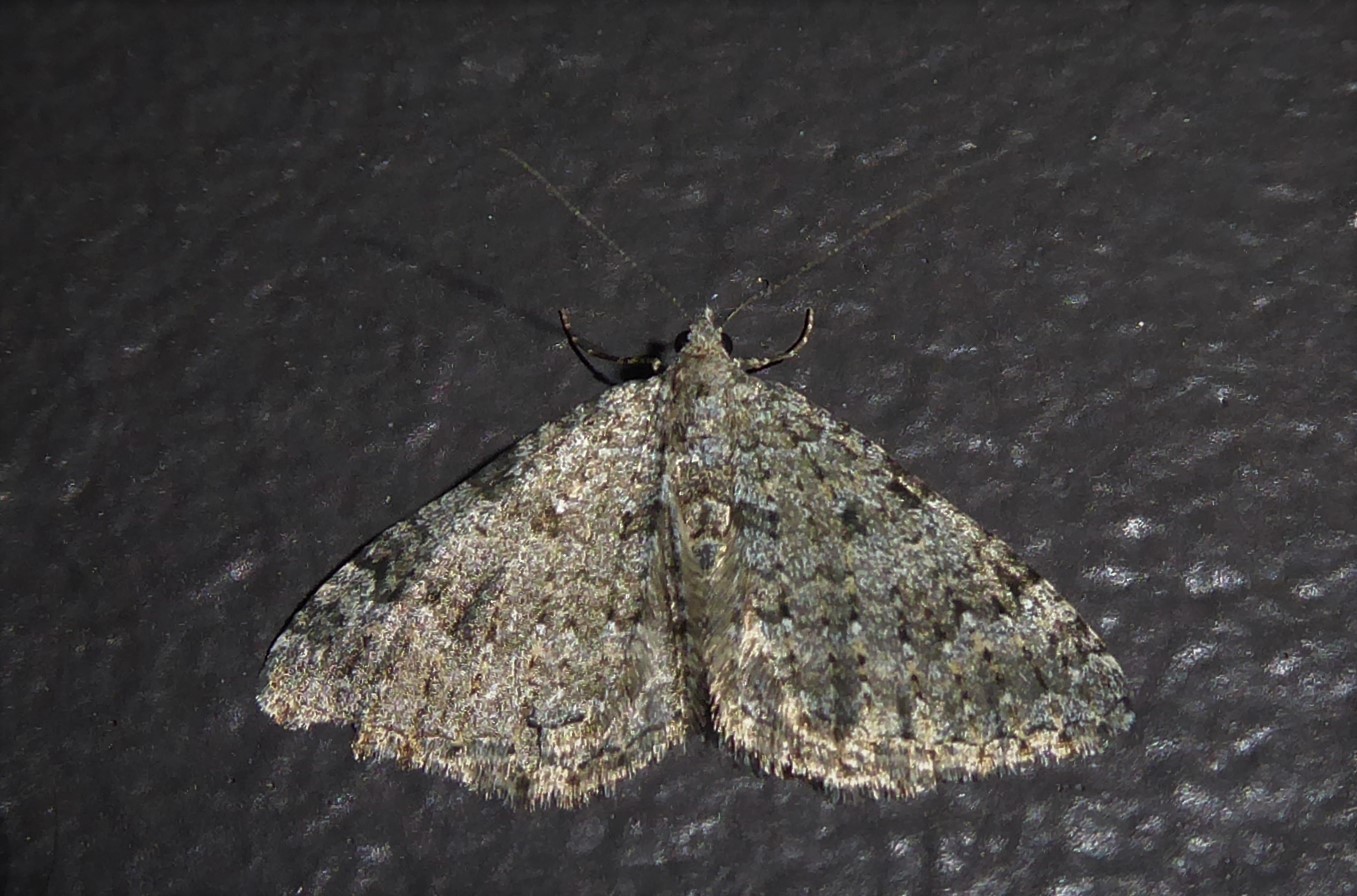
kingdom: Animalia
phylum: Arthropoda
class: Insecta
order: Lepidoptera
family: Geometridae
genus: Helastia
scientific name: Helastia corcularia
